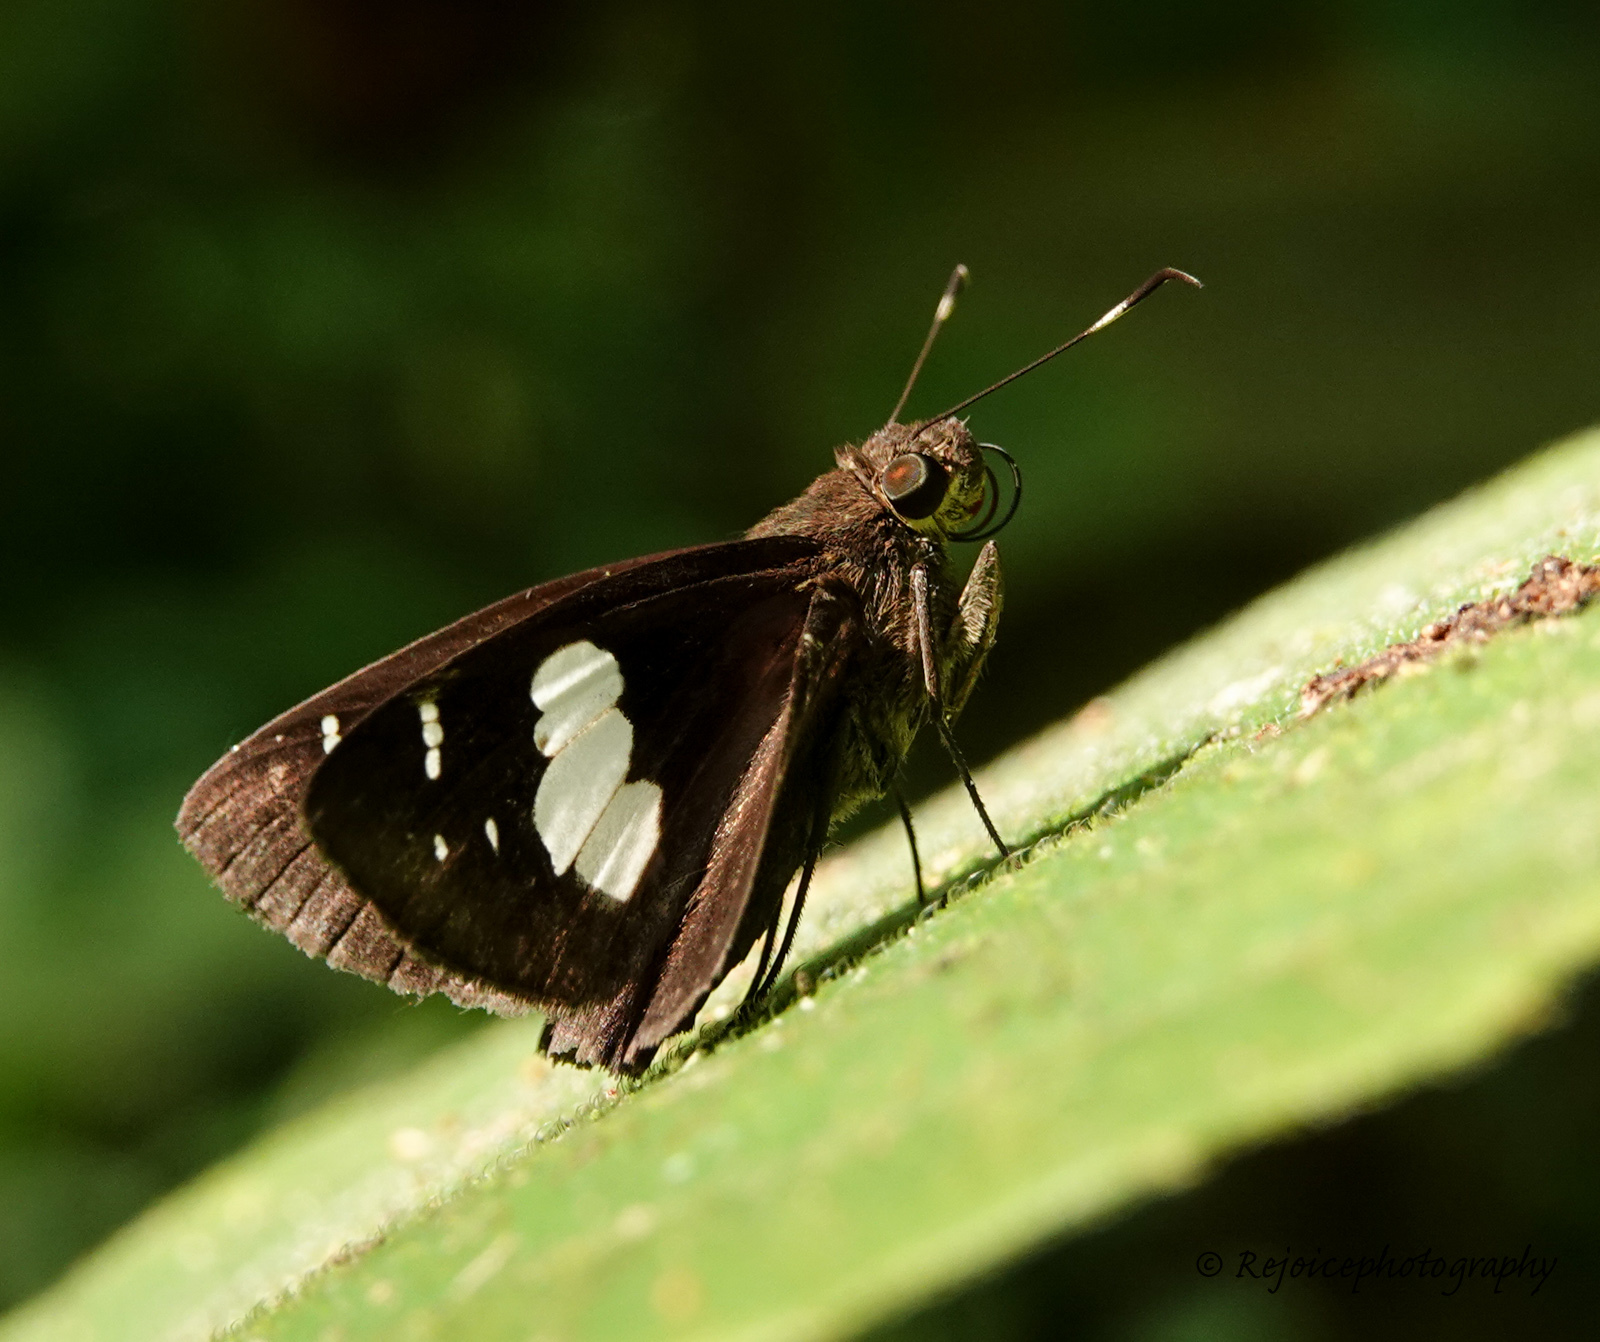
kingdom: Animalia
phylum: Arthropoda
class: Insecta
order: Lepidoptera
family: Hesperiidae
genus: Notocrypta
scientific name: Notocrypta curvifascia
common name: Restricted demon
